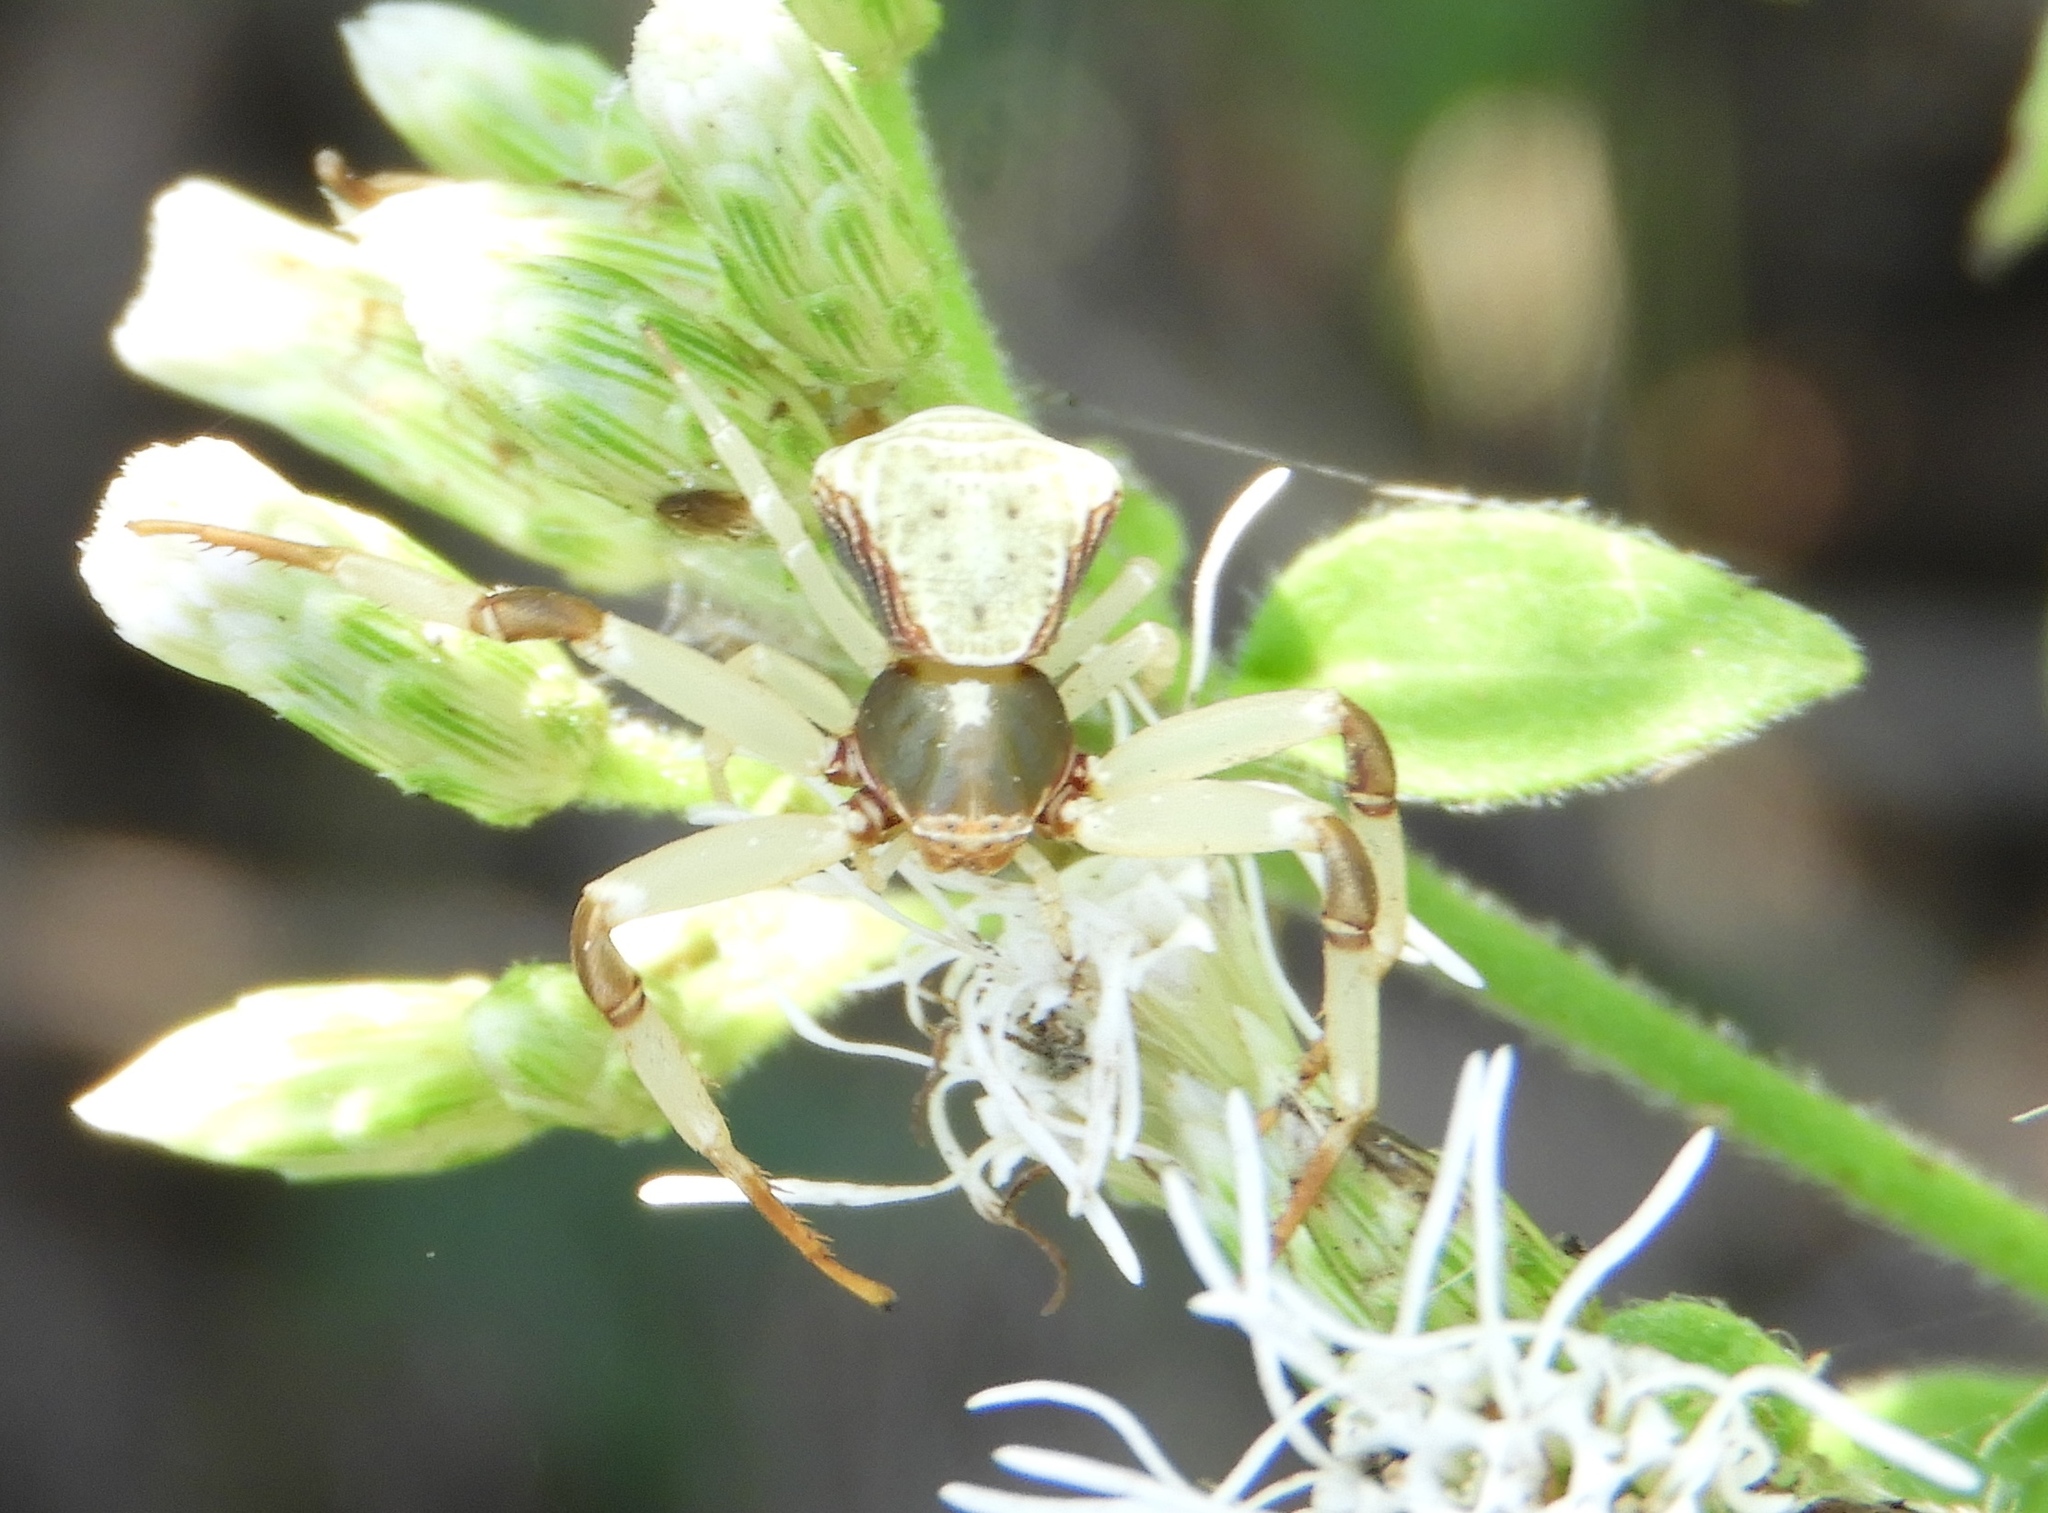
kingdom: Animalia
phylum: Arthropoda
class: Arachnida
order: Araneae
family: Thomisidae
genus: Misumenoides
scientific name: Misumenoides
